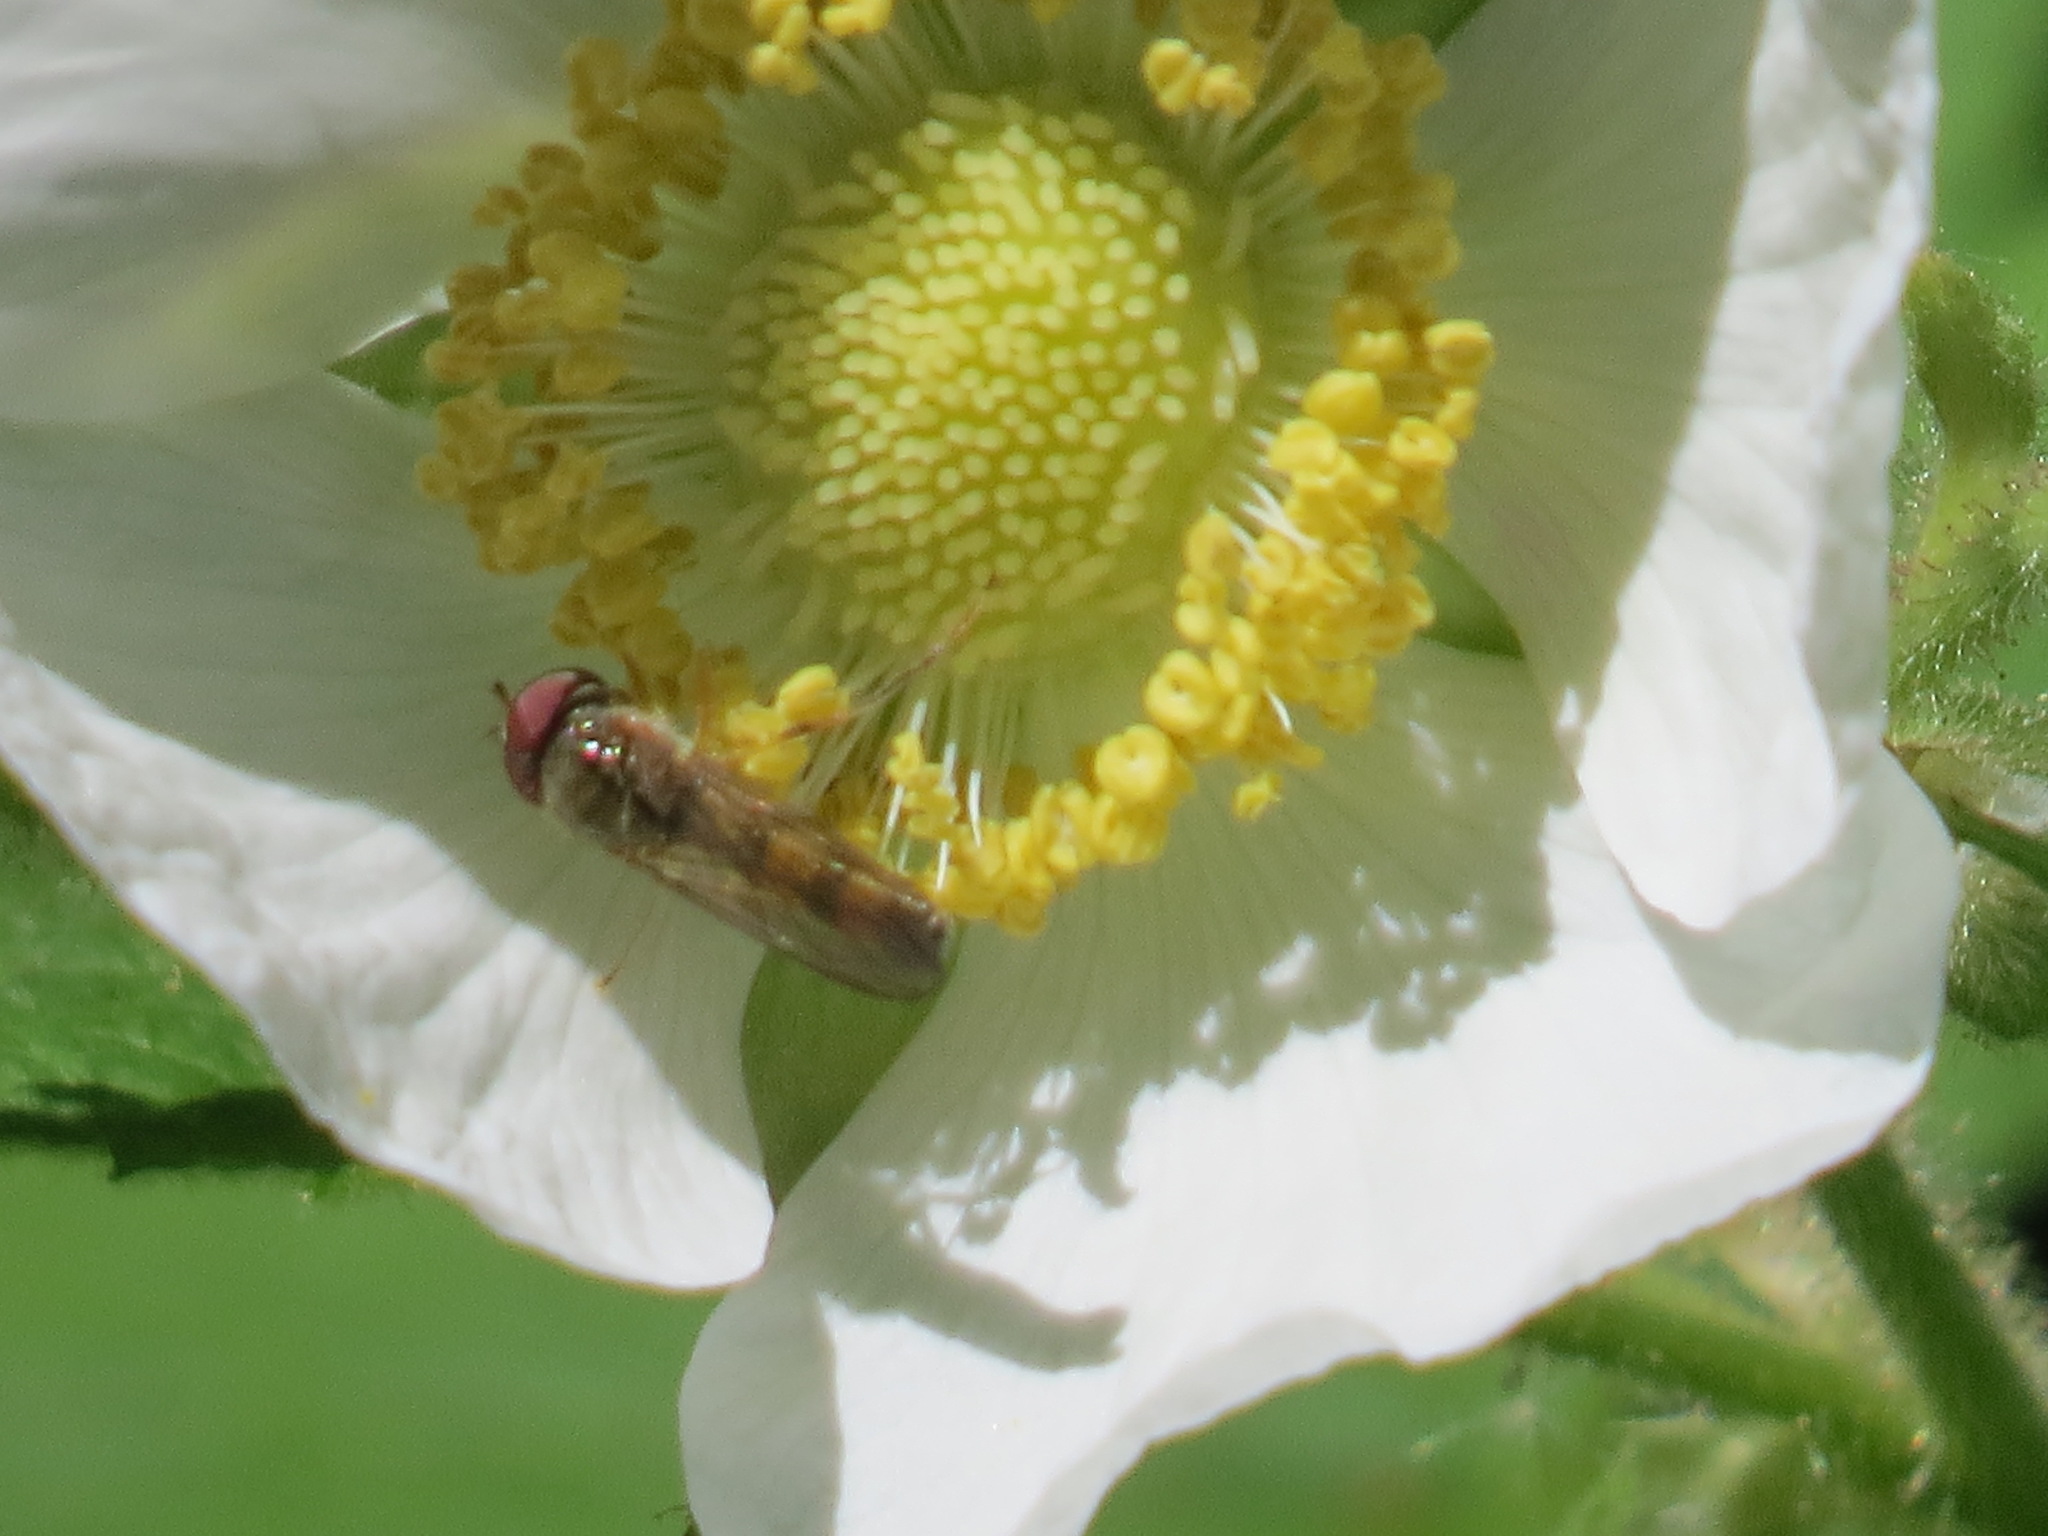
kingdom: Animalia
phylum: Arthropoda
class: Insecta
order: Diptera
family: Syrphidae
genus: Fazia
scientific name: Fazia micrura
